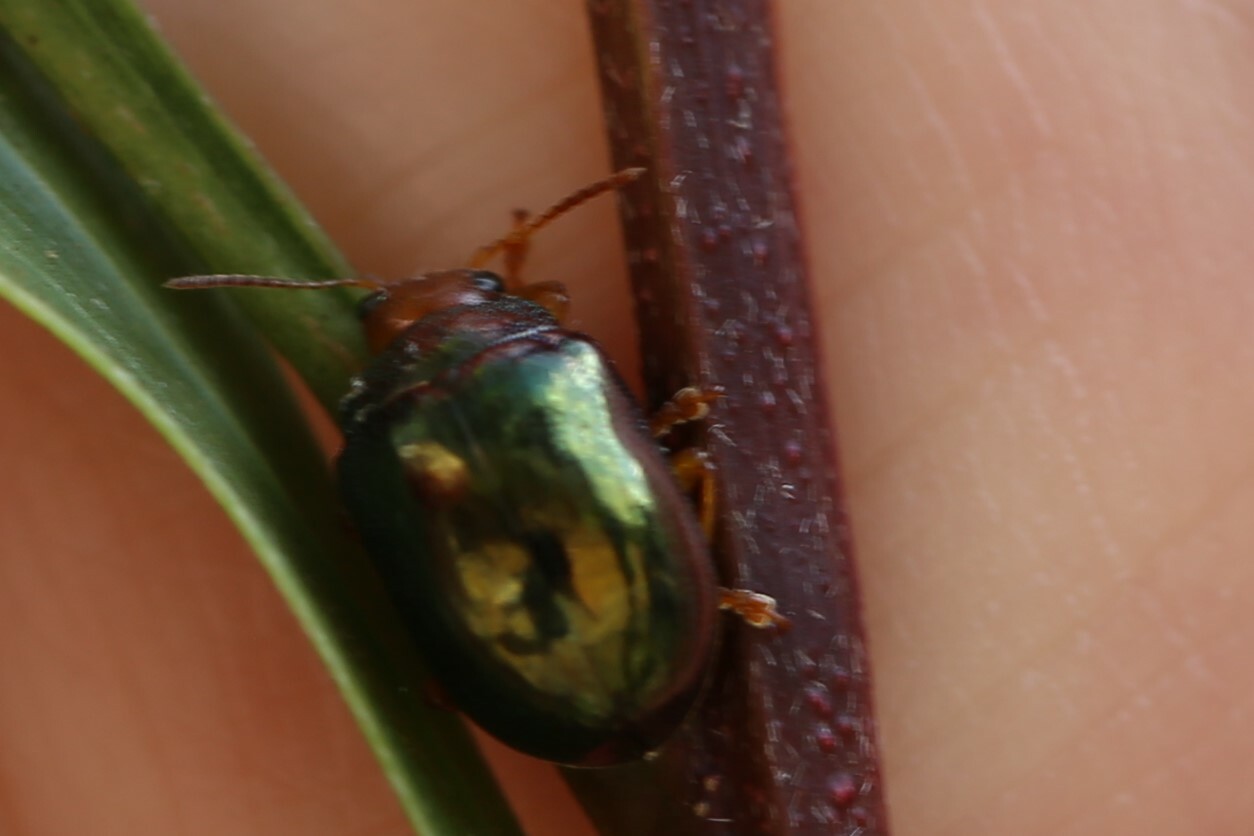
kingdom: Animalia
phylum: Arthropoda
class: Insecta
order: Coleoptera
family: Chrysomelidae
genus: Calomela
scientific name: Calomela
